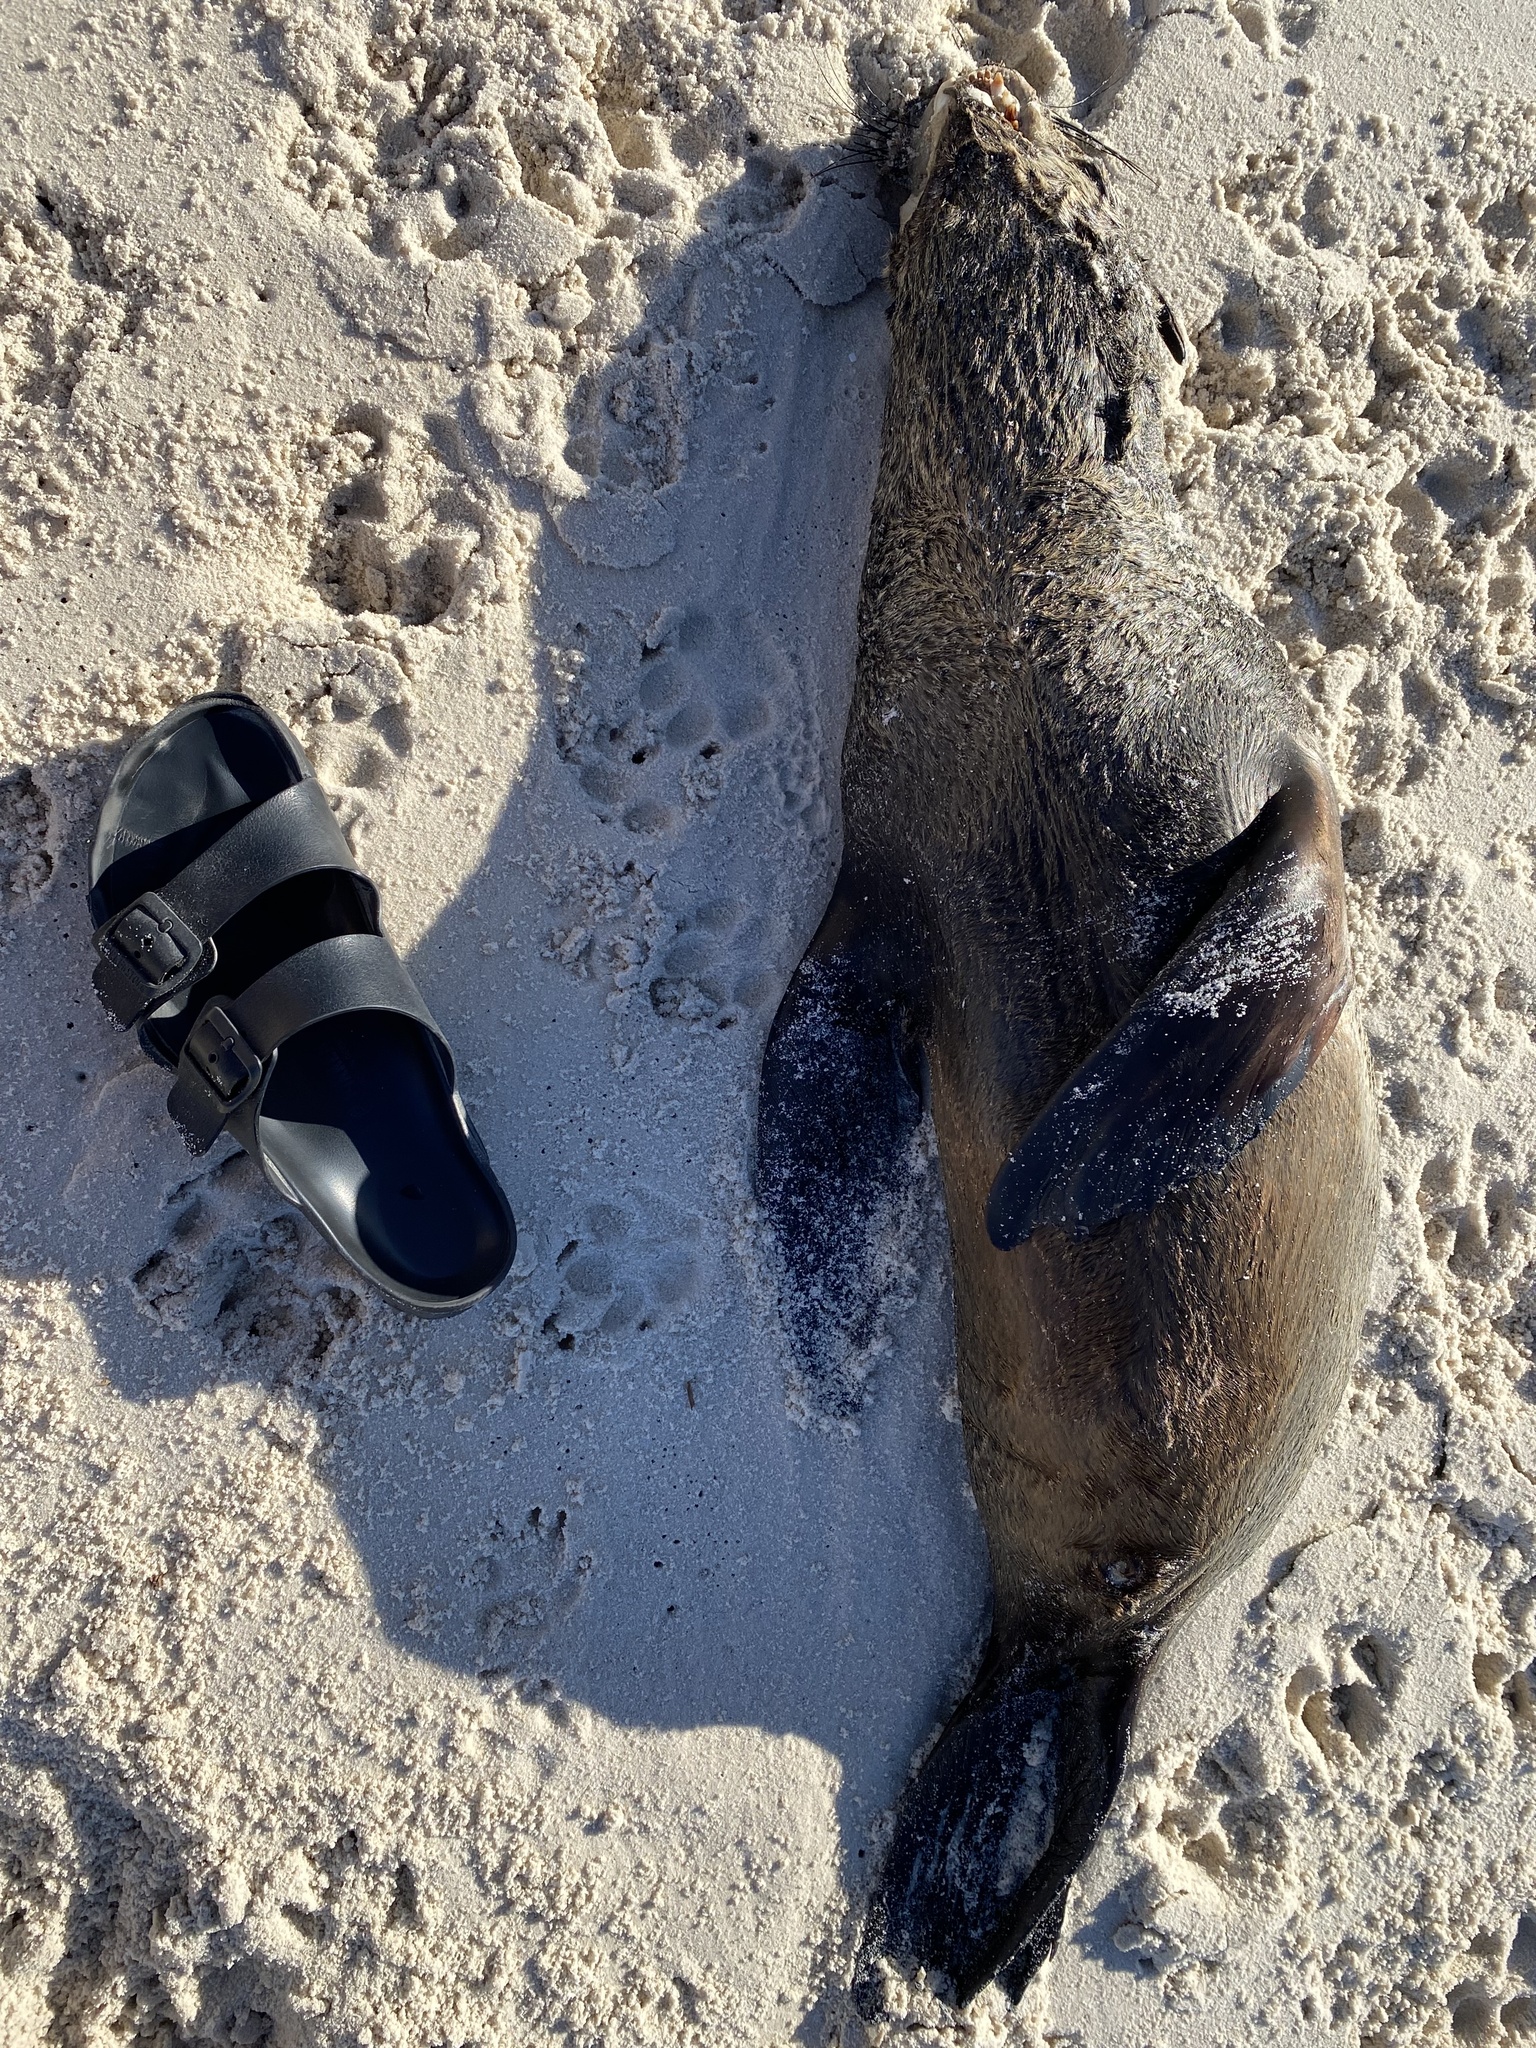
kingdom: Animalia
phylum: Chordata
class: Mammalia
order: Carnivora
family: Otariidae
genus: Arctocephalus
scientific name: Arctocephalus pusillus
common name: Brown fur seal
